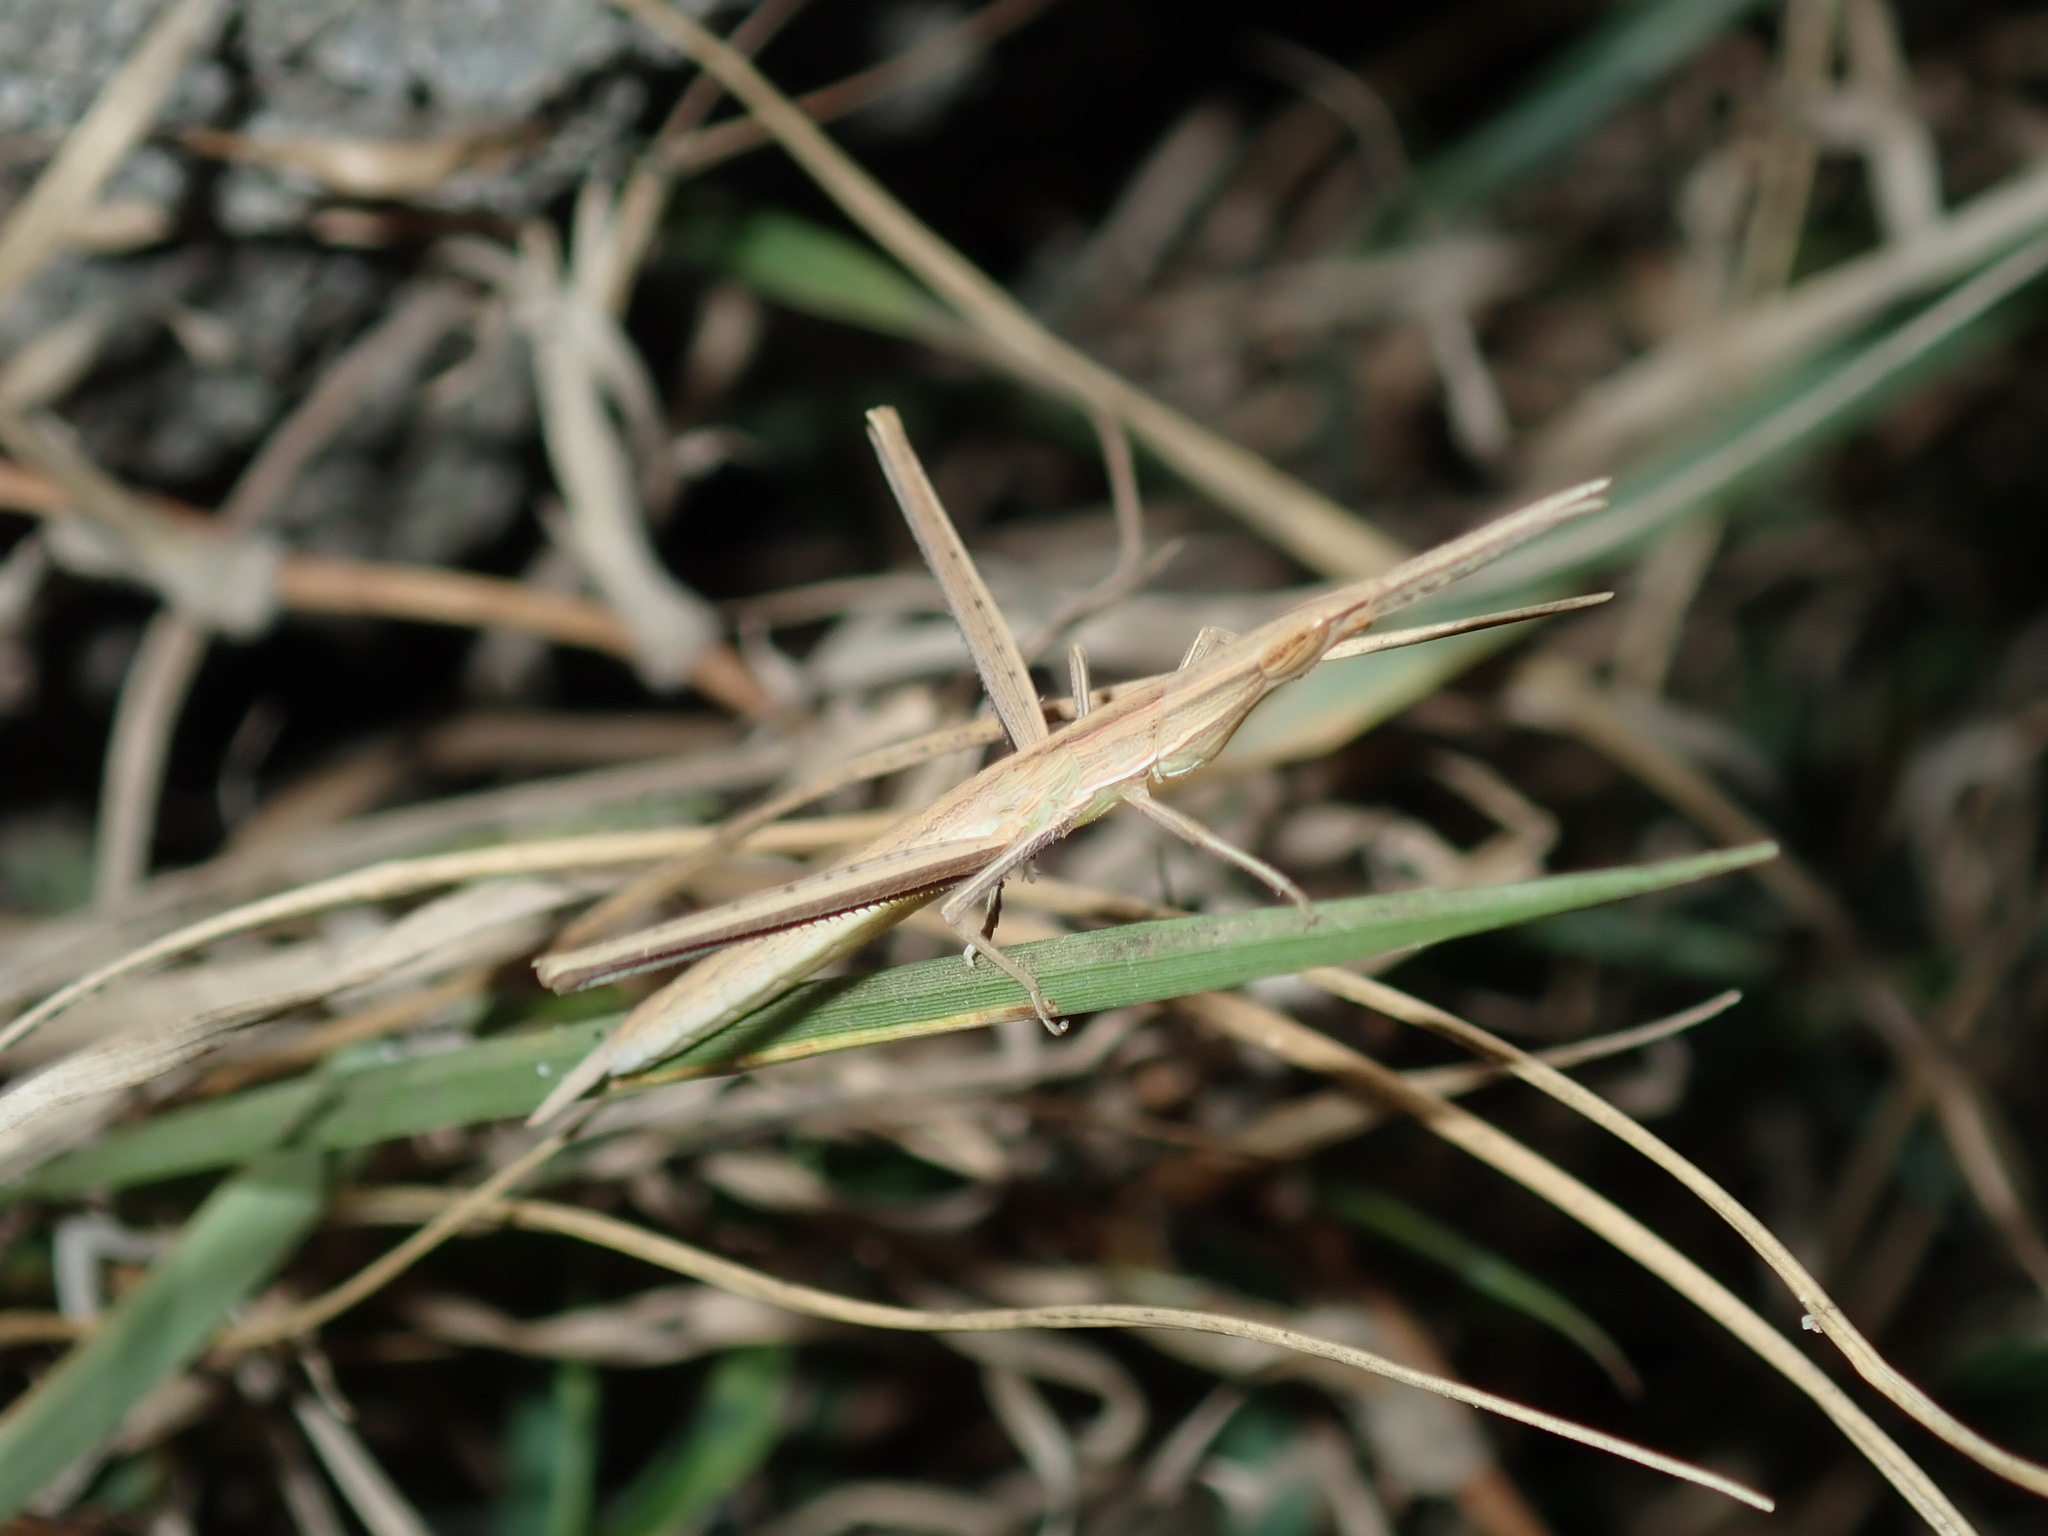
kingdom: Animalia
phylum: Arthropoda
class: Insecta
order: Orthoptera
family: Acrididae
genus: Acrida
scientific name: Acrida conica
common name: Giant green slantface
